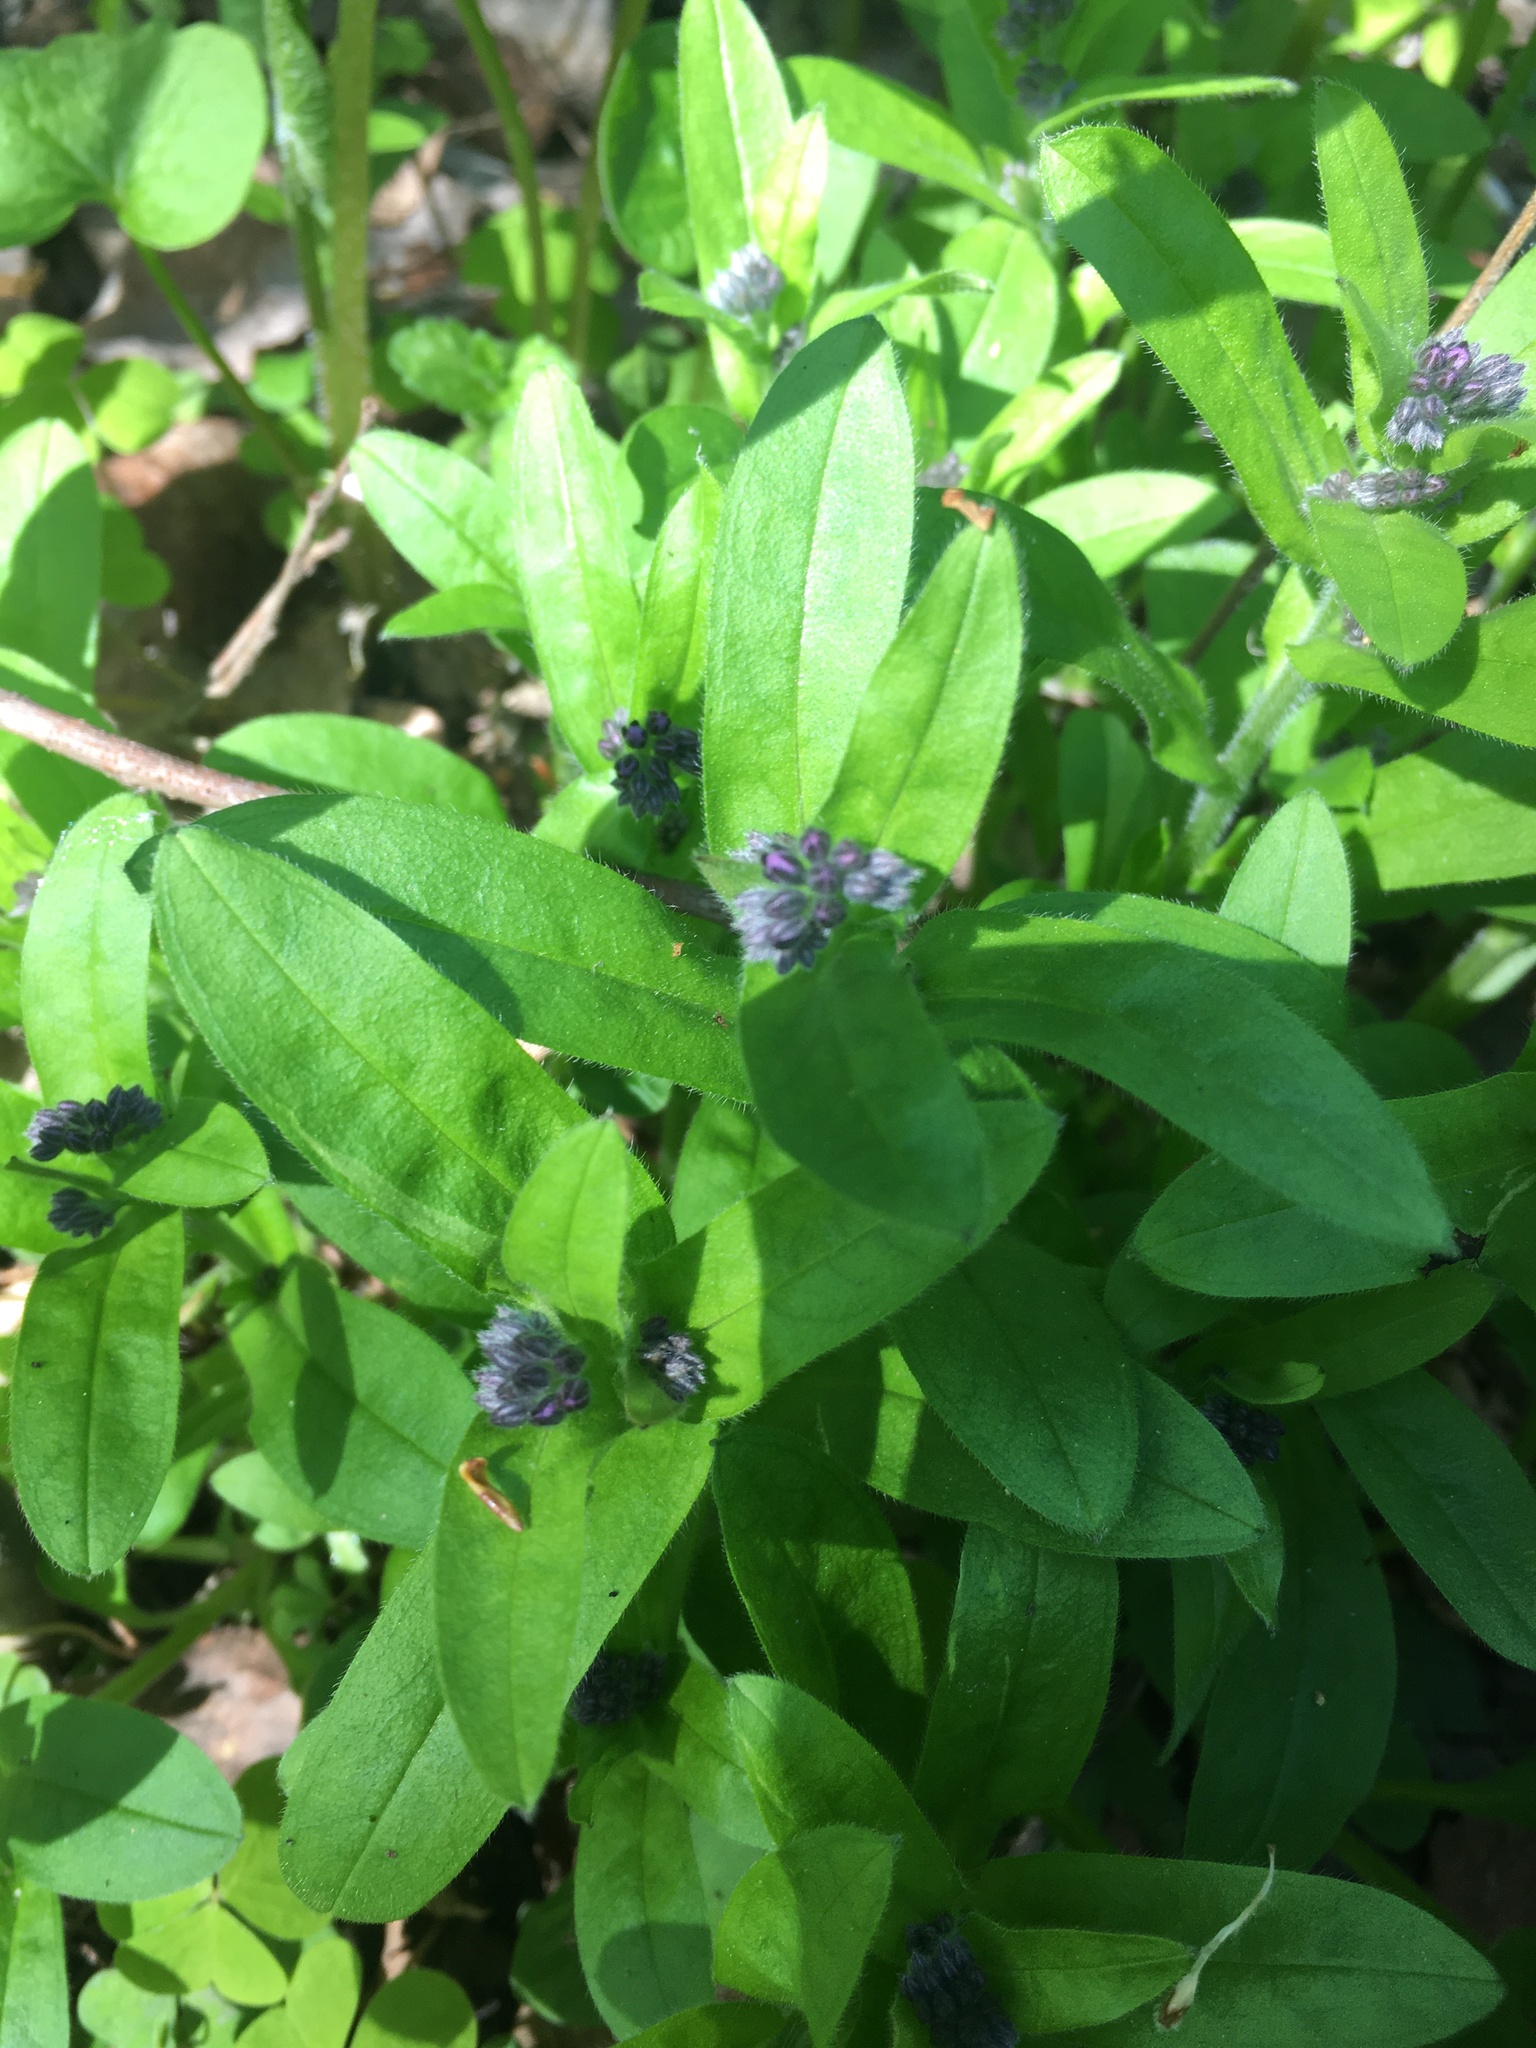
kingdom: Plantae
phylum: Tracheophyta
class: Magnoliopsida
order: Boraginales
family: Boraginaceae
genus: Myosotis
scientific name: Myosotis sylvatica
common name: Wood forget-me-not
